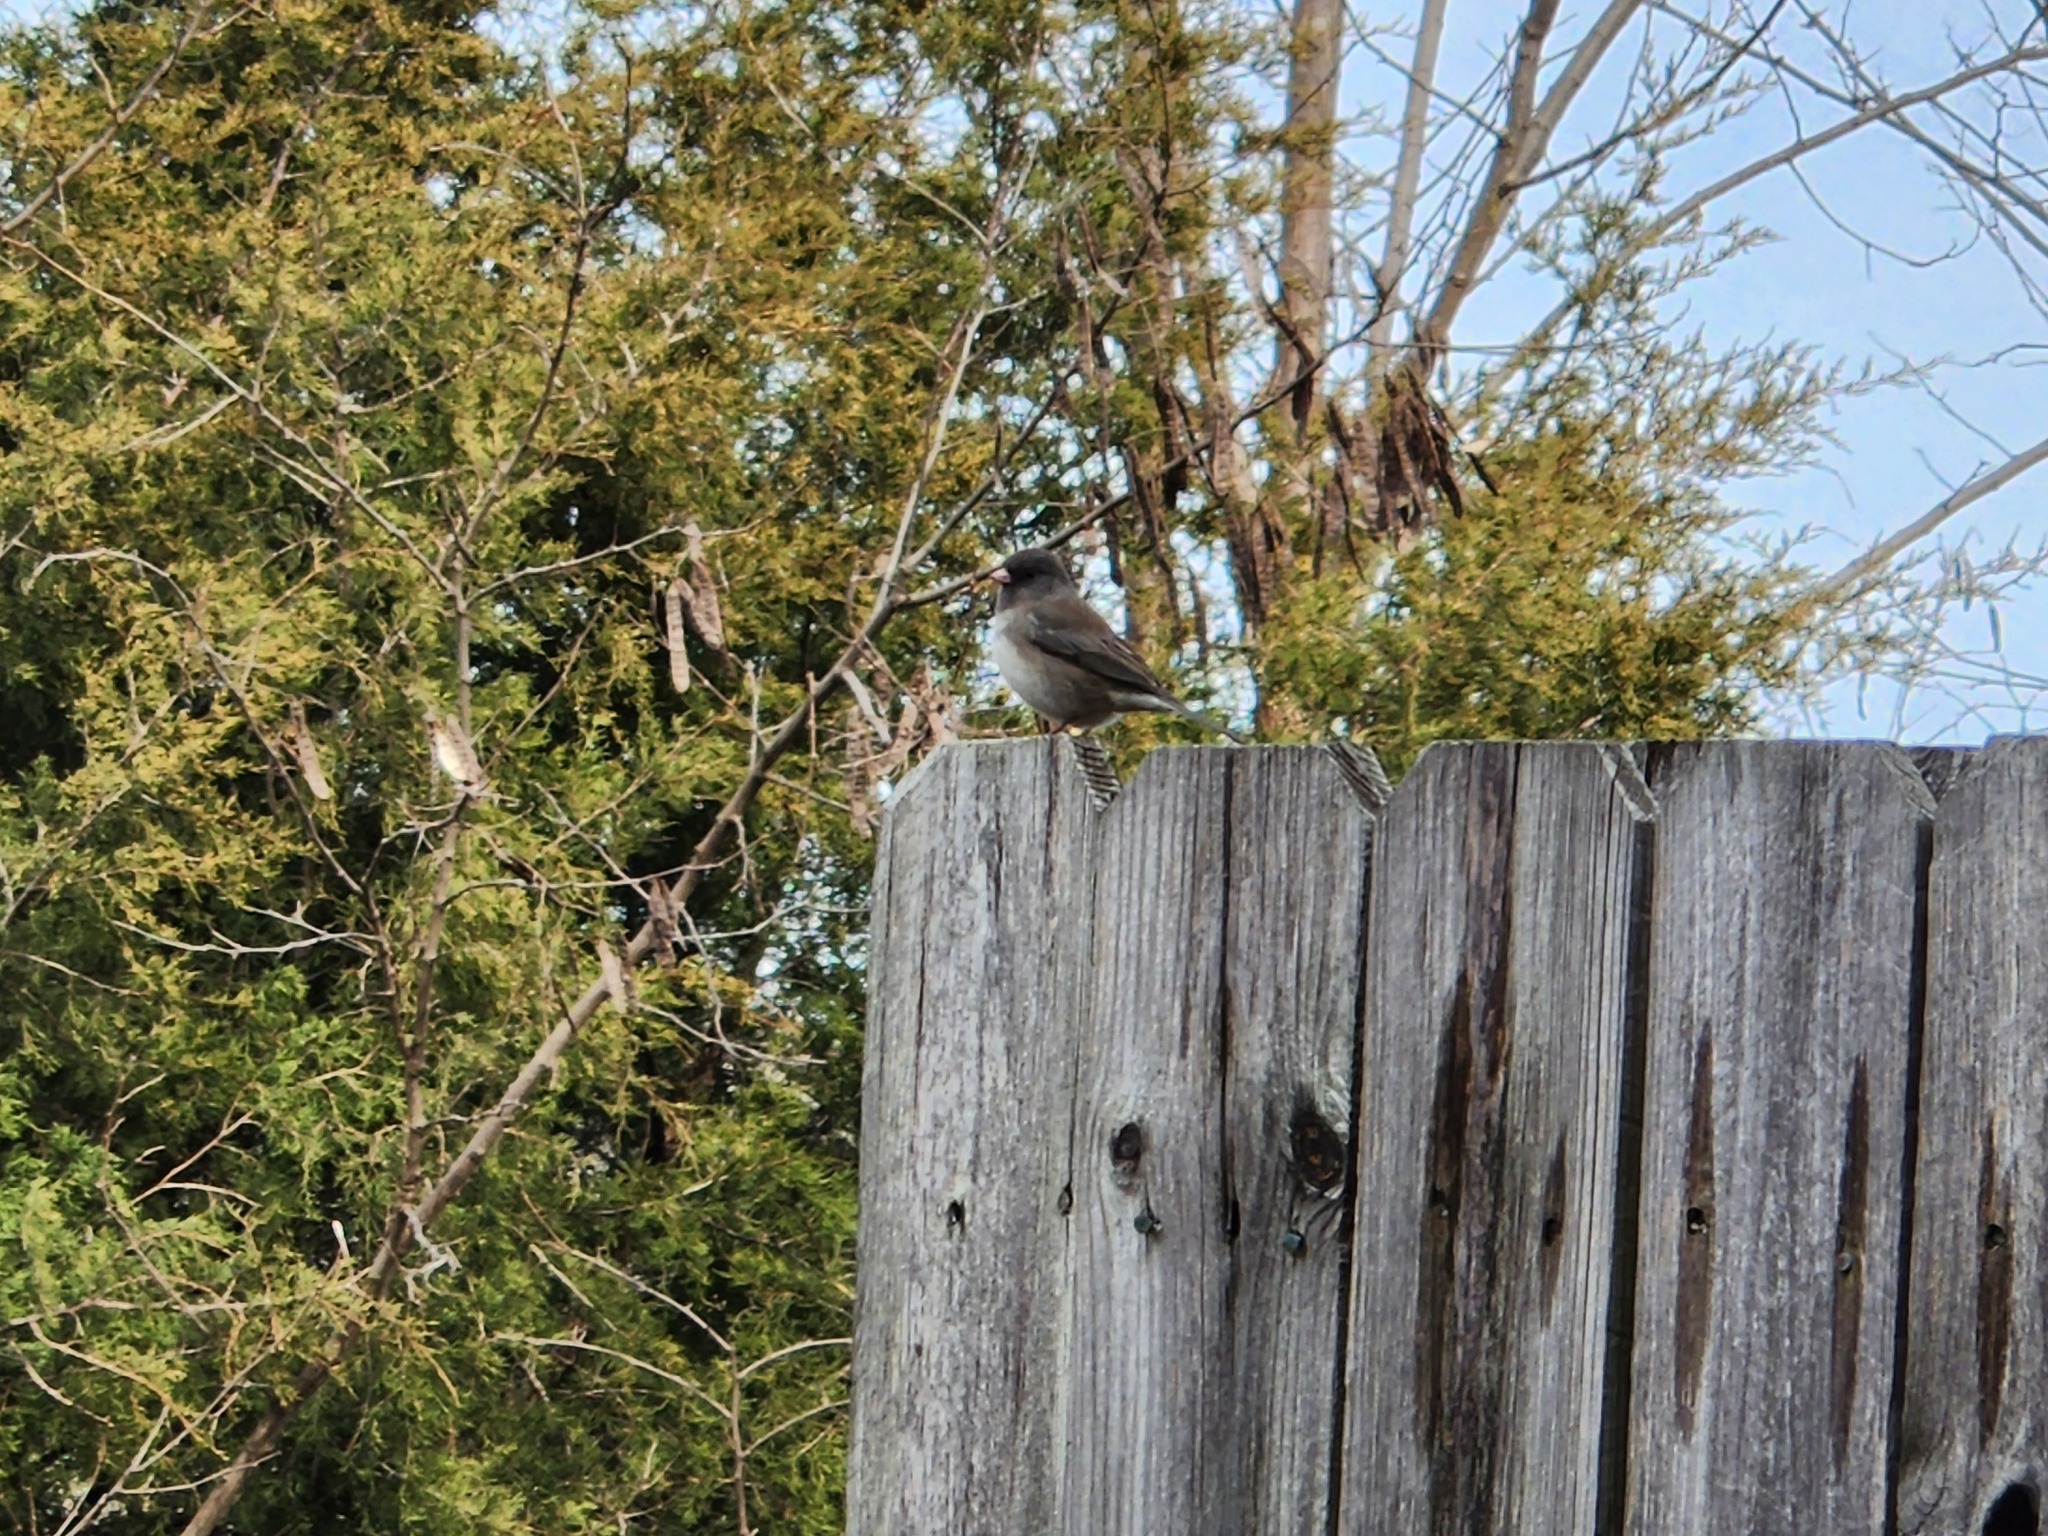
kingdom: Animalia
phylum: Chordata
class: Aves
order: Passeriformes
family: Passerellidae
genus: Junco
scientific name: Junco hyemalis
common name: Dark-eyed junco
